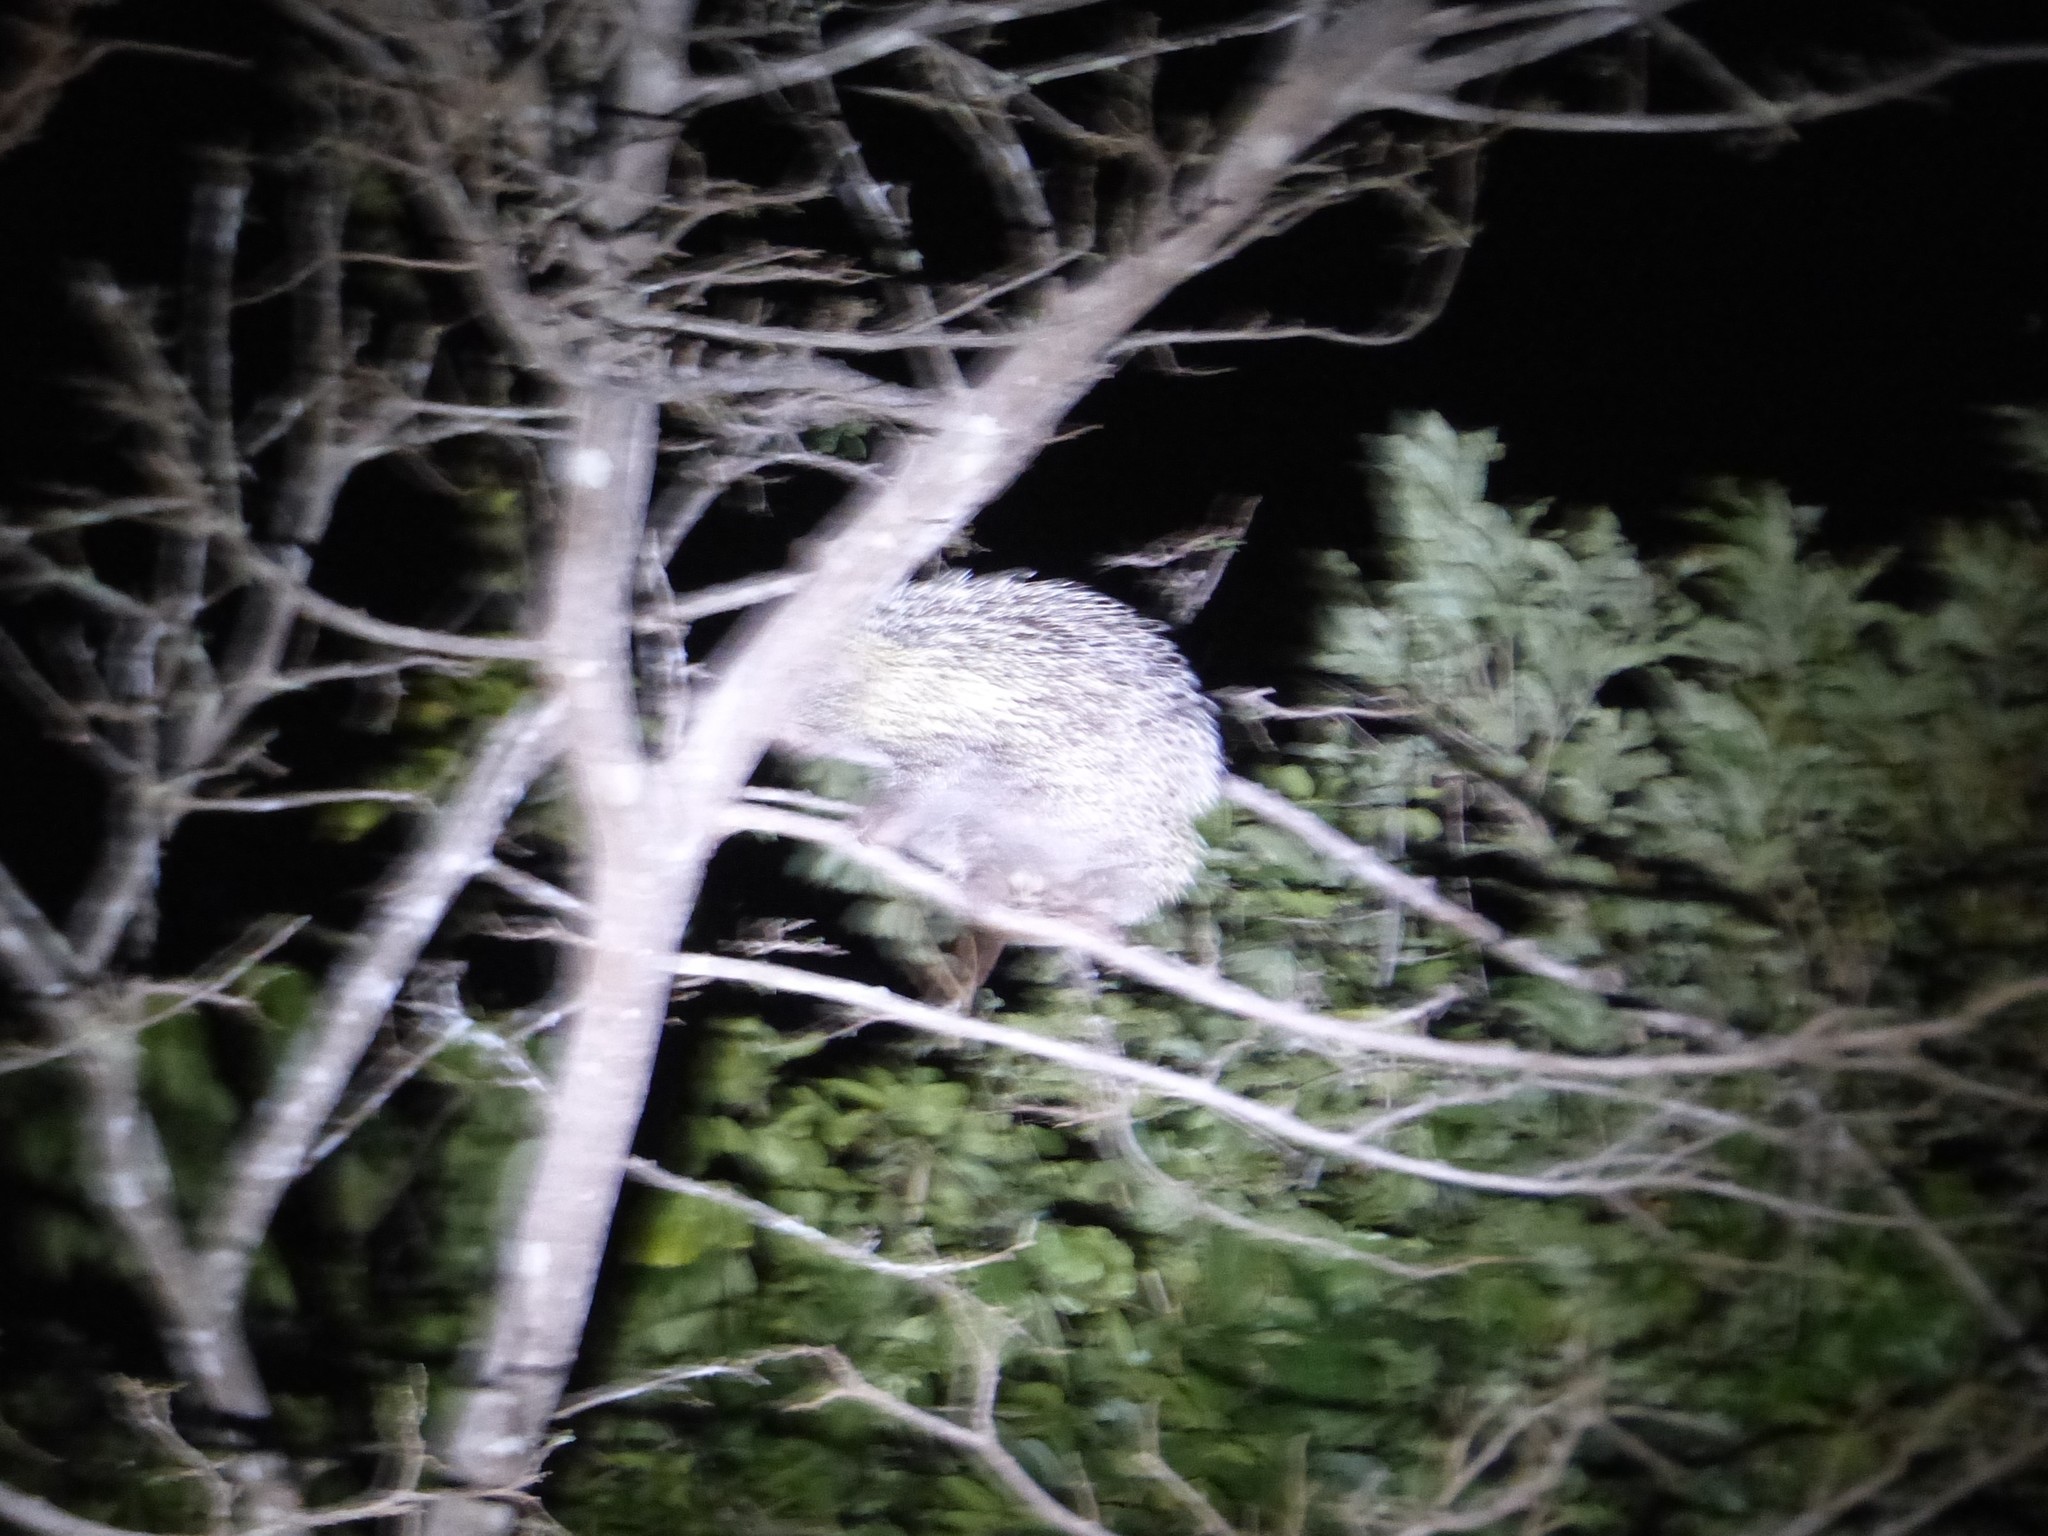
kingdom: Animalia
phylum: Chordata
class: Mammalia
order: Rodentia
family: Erethizontidae
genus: Coendou
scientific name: Coendou longicaudatus
